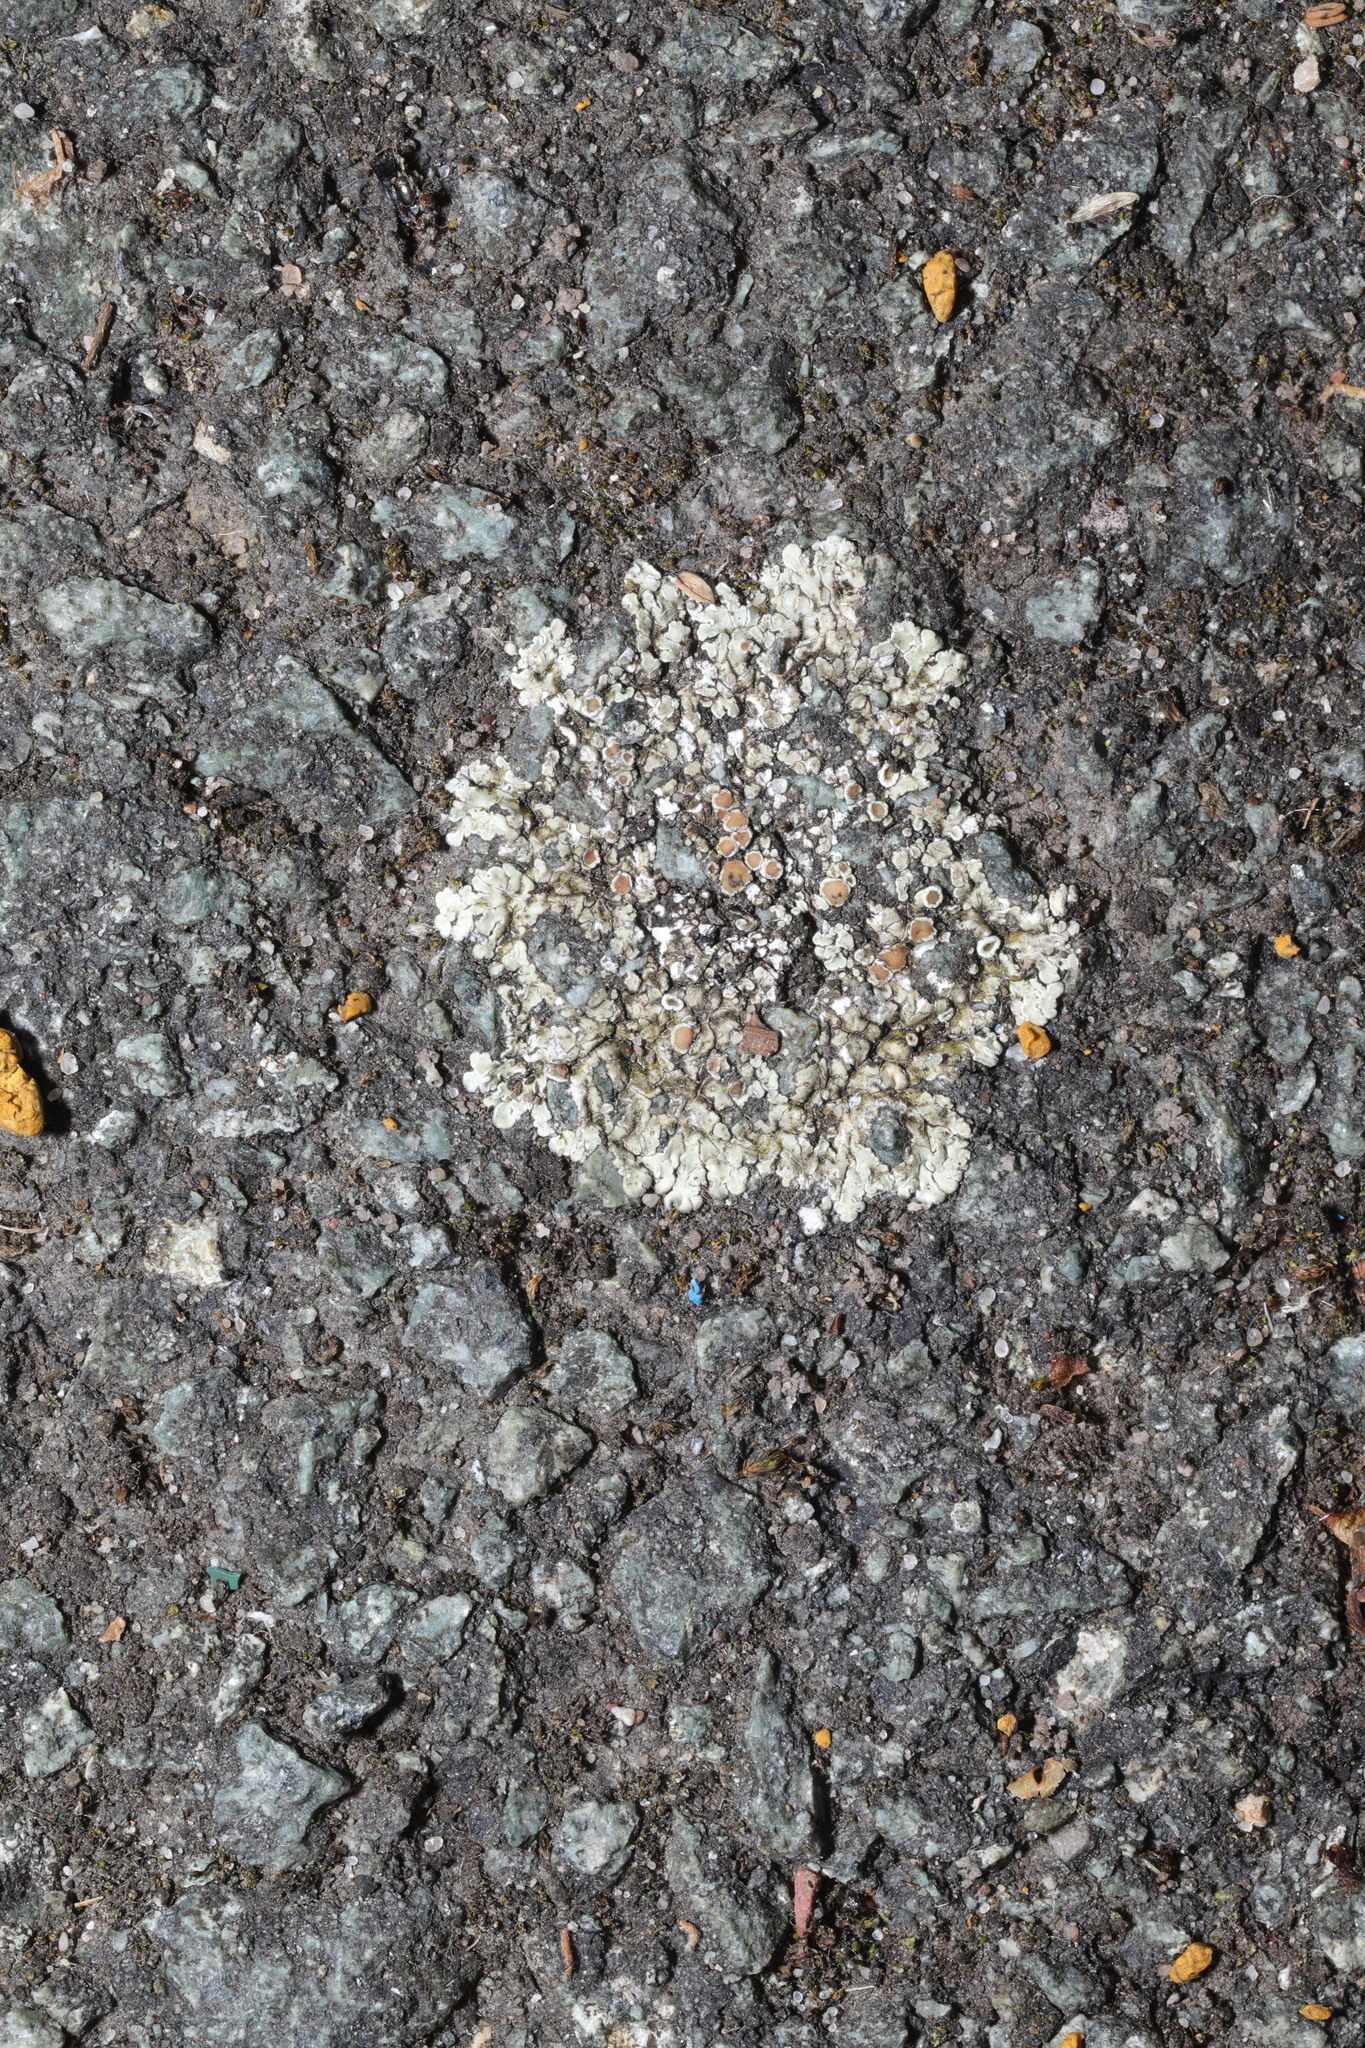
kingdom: Fungi
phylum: Ascomycota
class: Lecanoromycetes
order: Lecanorales
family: Lecanoraceae
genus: Protoparmeliopsis
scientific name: Protoparmeliopsis muralis
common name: Stonewall rim lichen
